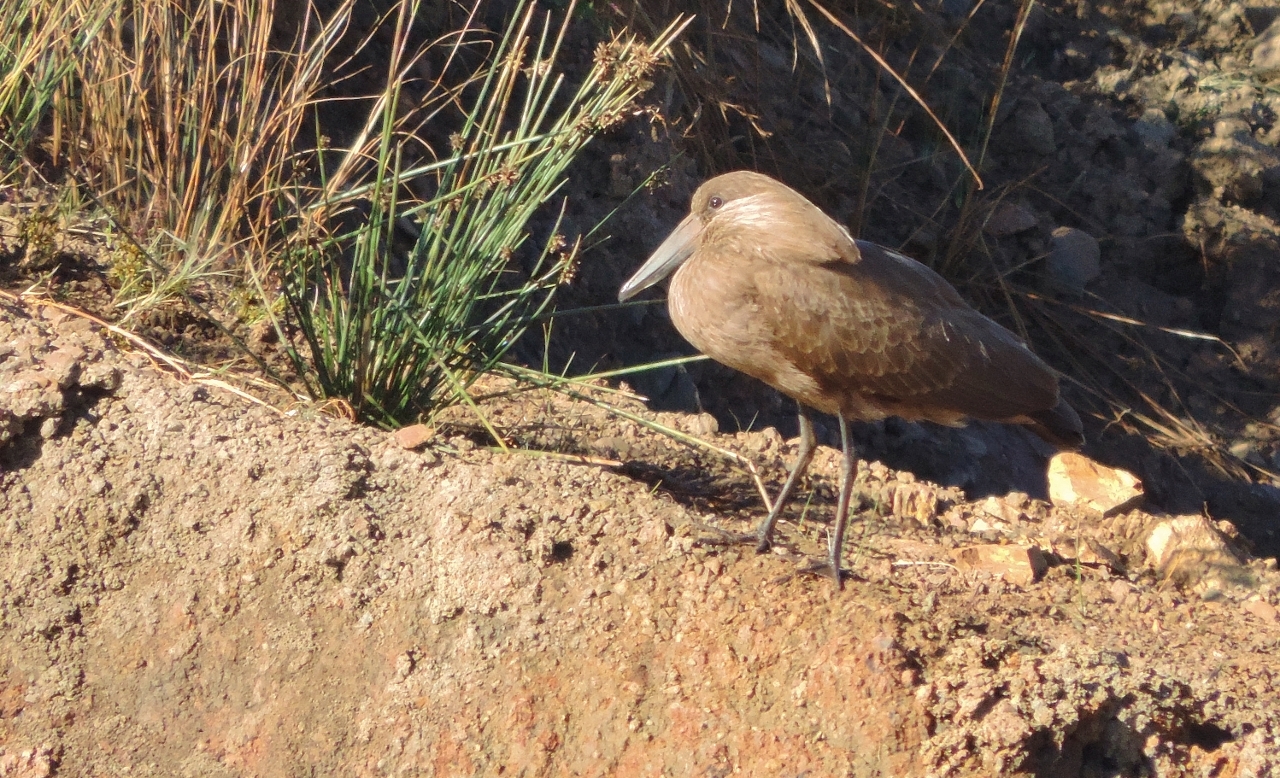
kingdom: Animalia
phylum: Chordata
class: Aves
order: Pelecaniformes
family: Scopidae
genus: Scopus
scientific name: Scopus umbretta
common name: Hamerkop
